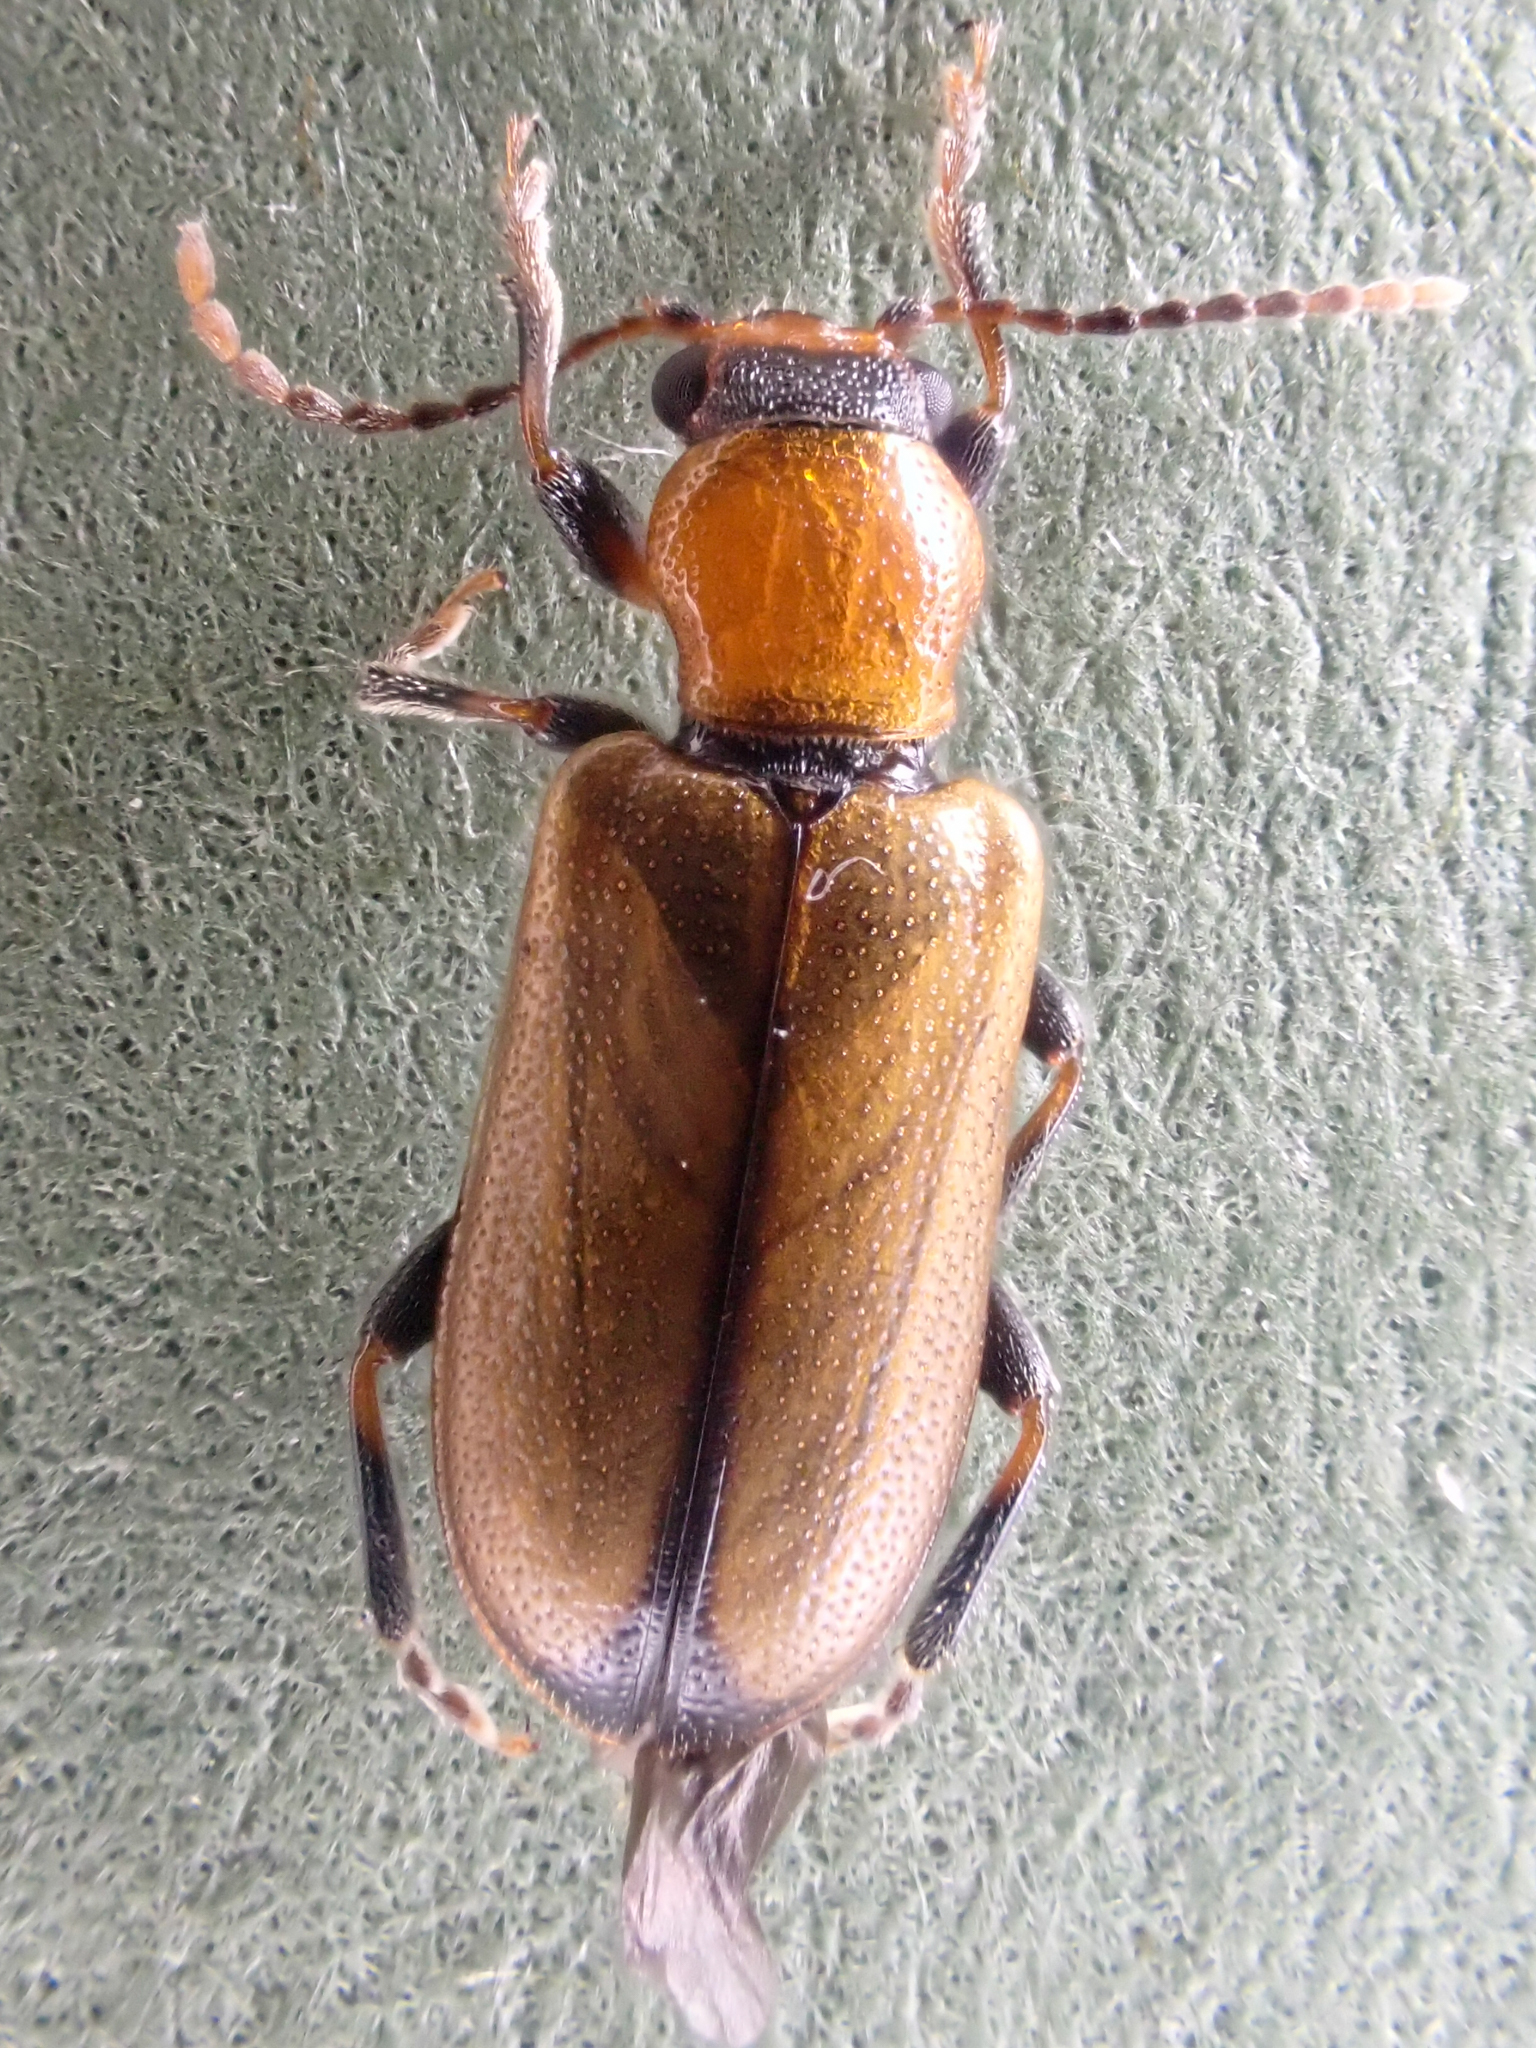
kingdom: Animalia
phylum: Arthropoda
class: Insecta
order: Coleoptera
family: Orsodacnidae
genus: Orsodacne
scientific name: Orsodacne atra
